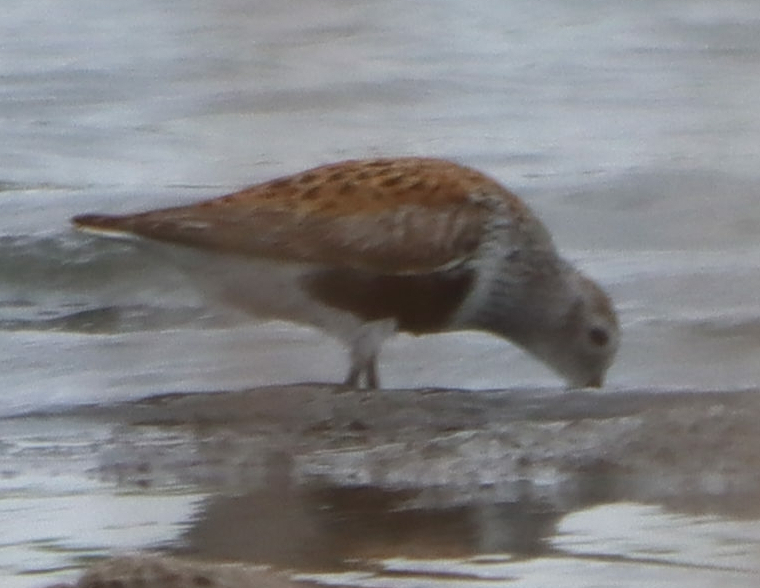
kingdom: Animalia
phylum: Chordata
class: Aves
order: Charadriiformes
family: Scolopacidae
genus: Calidris
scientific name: Calidris alpina
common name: Dunlin
